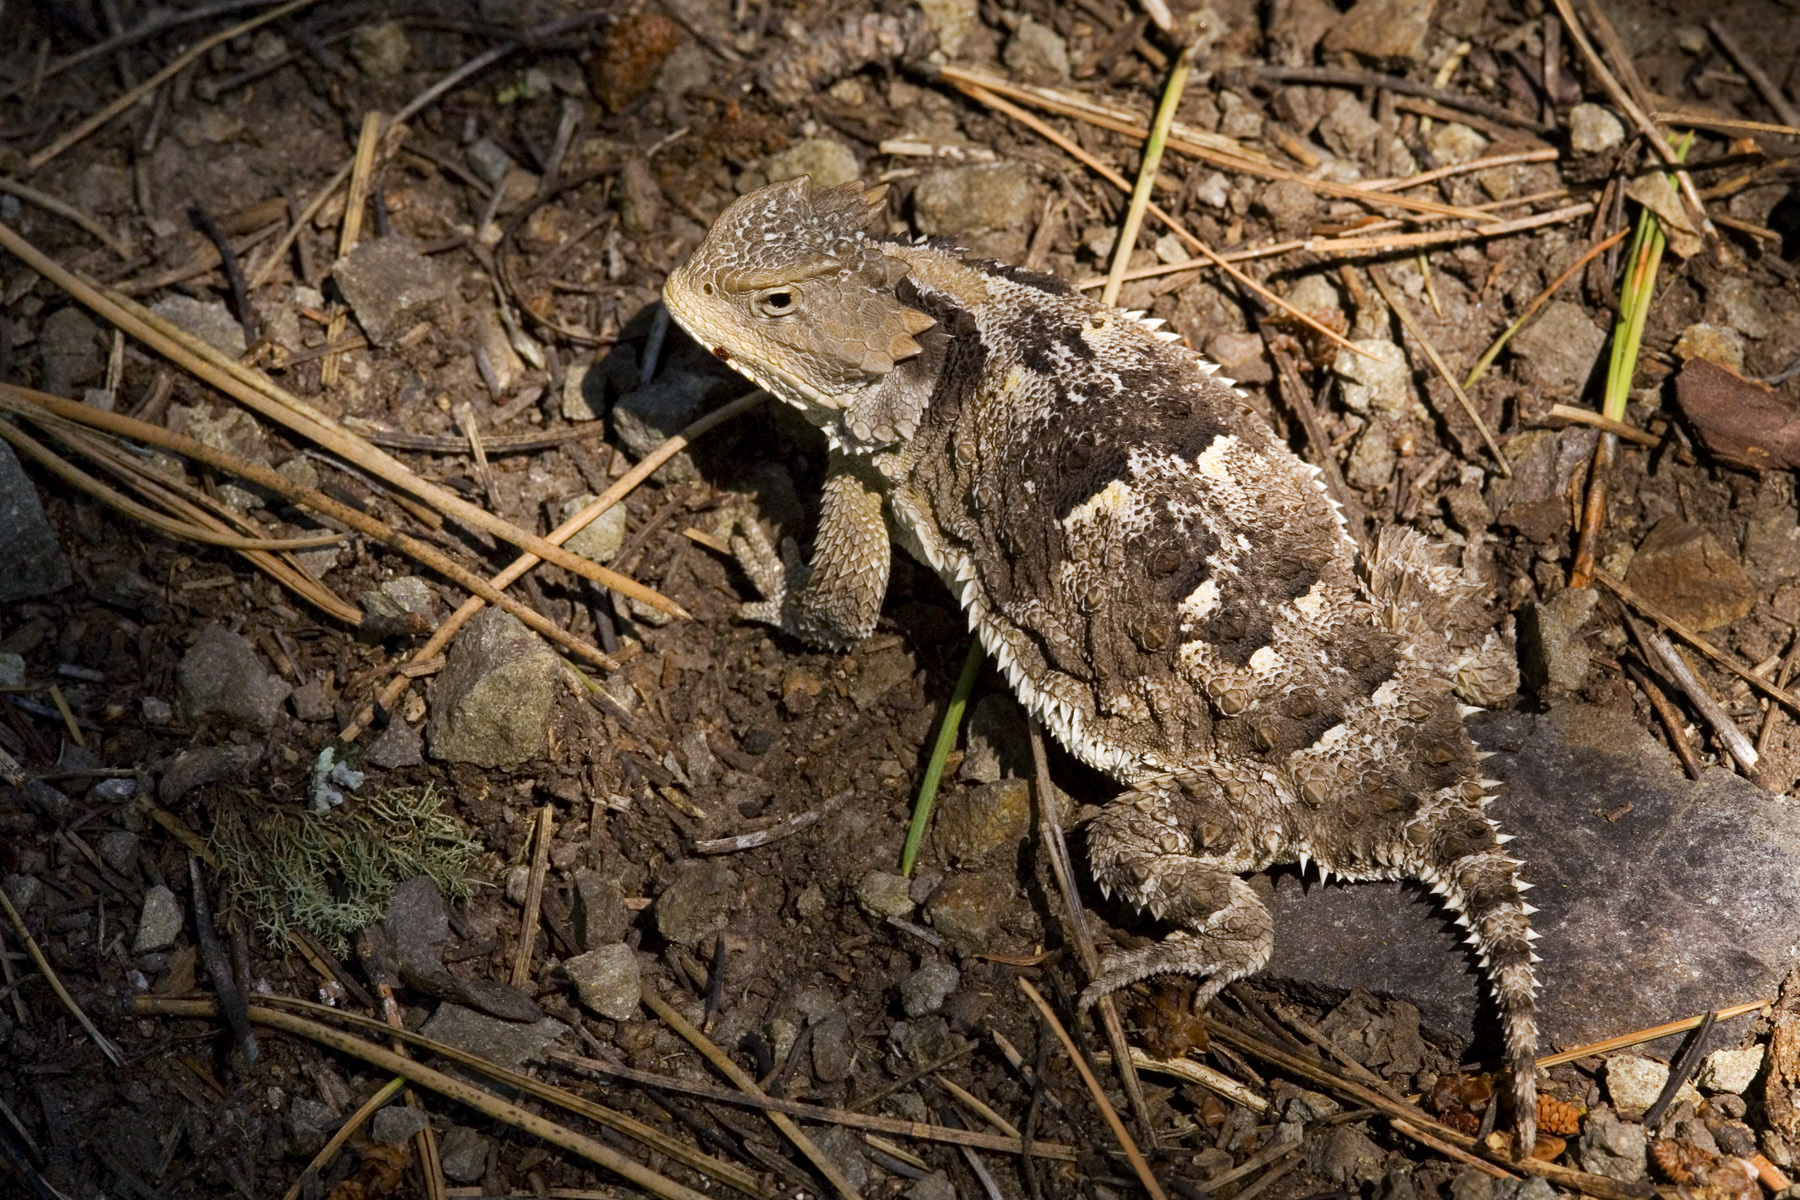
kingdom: Animalia
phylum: Chordata
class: Squamata
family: Phrynosomatidae
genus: Phrynosoma
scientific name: Phrynosoma hernandesi
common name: Greater short-horned lizard
